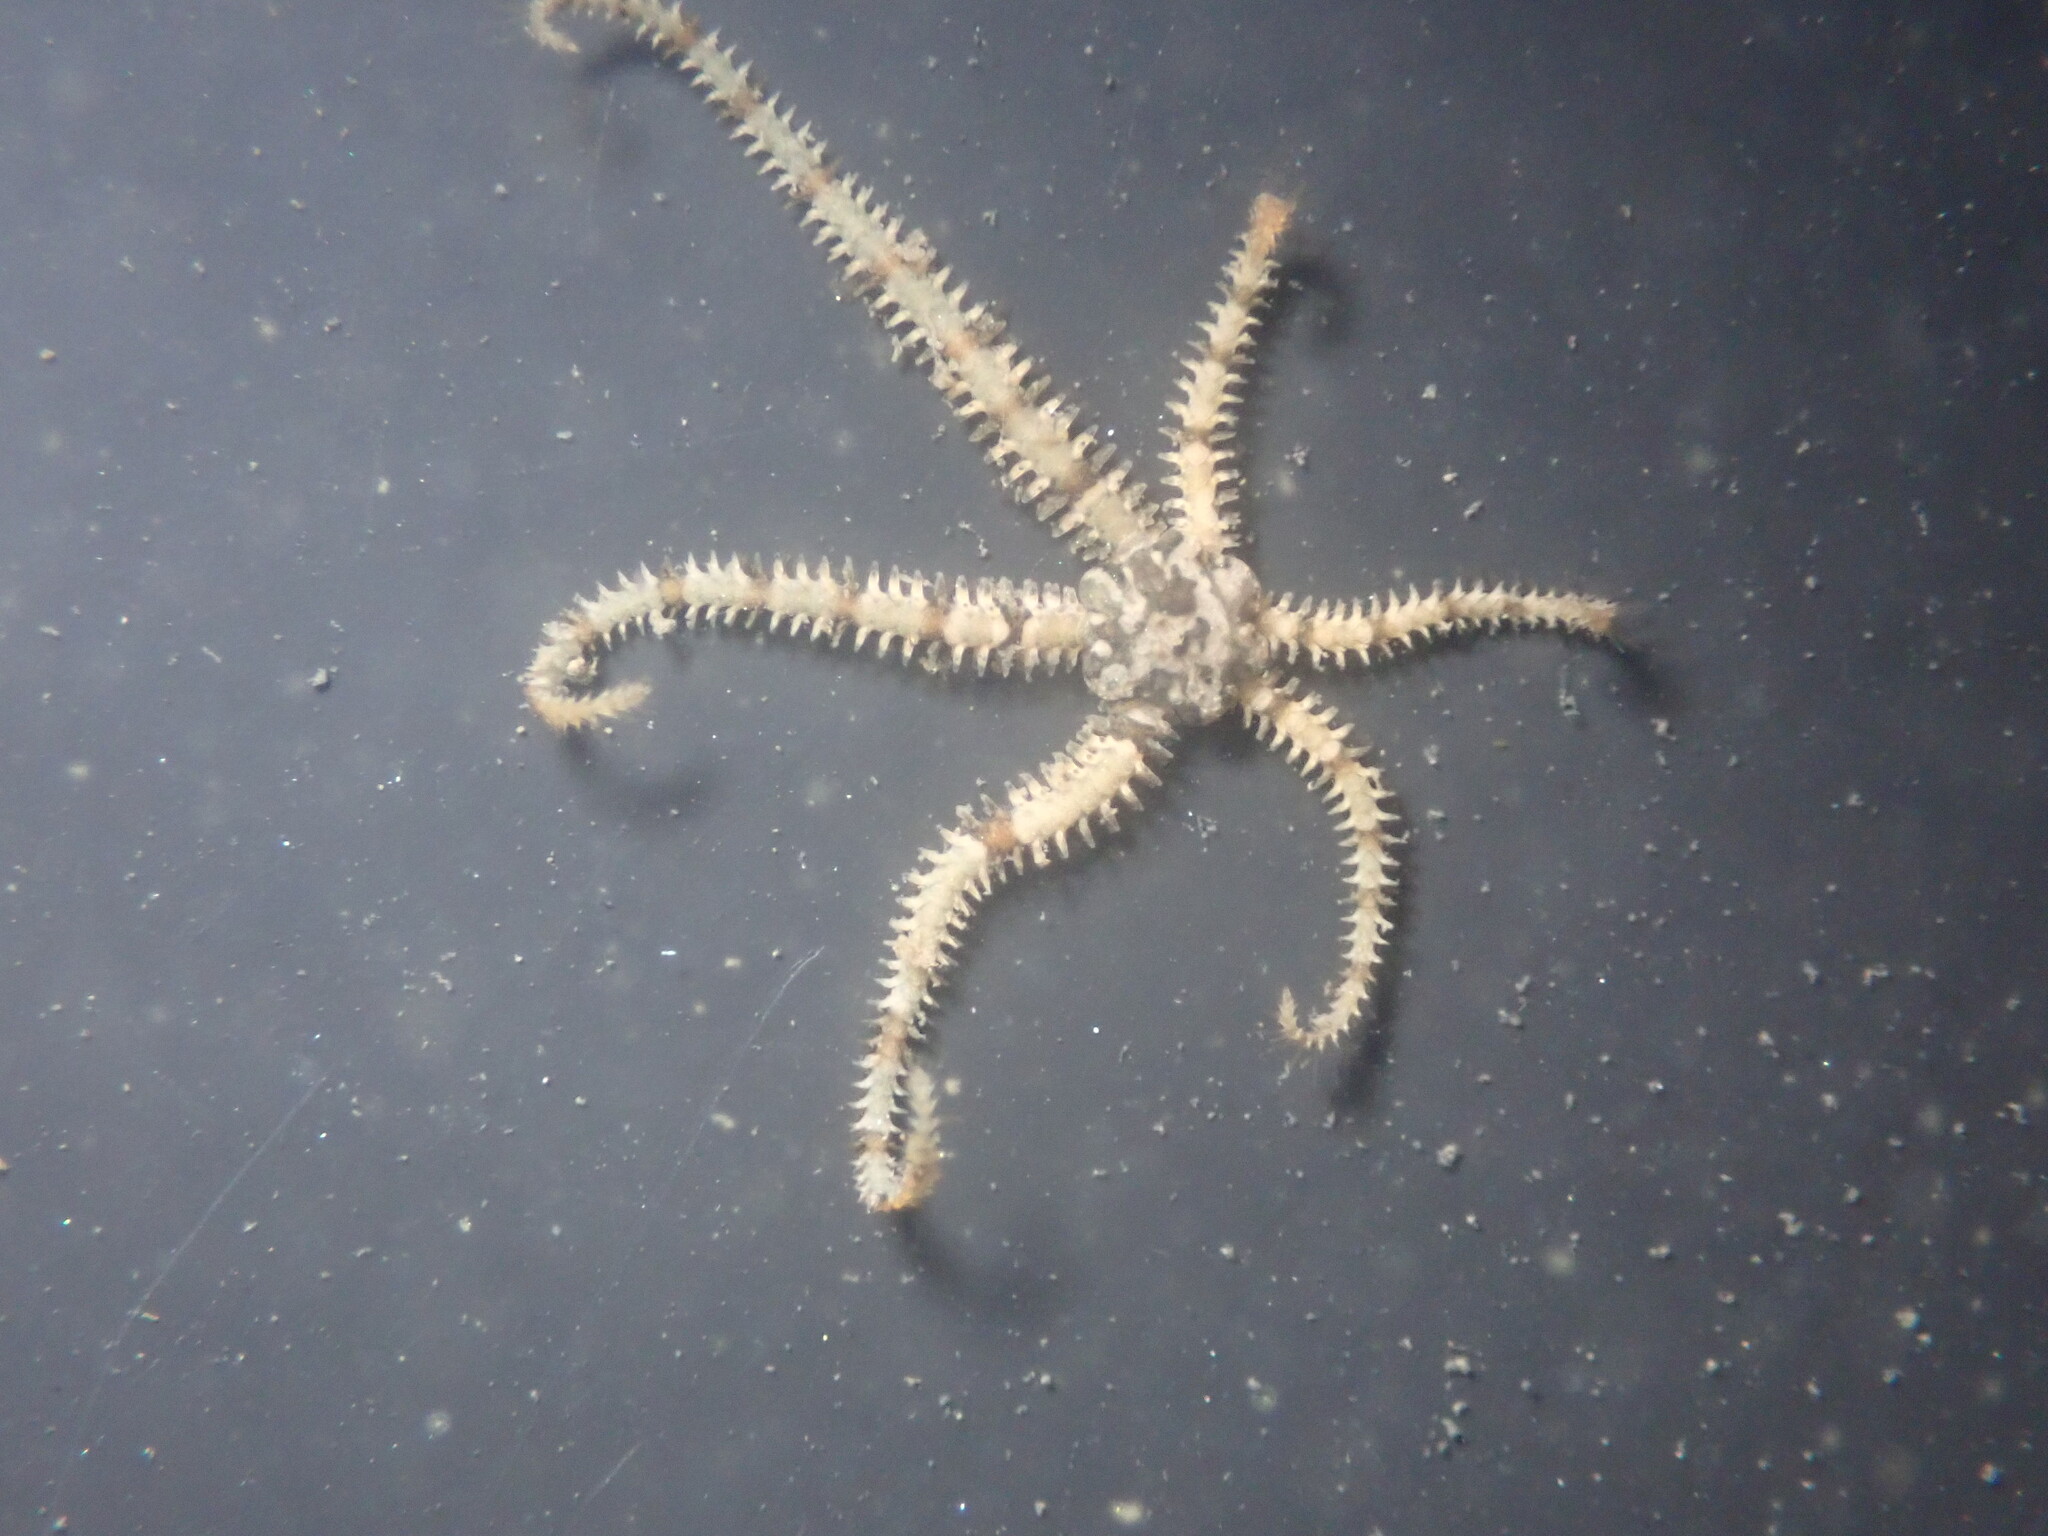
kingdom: Animalia
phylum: Echinodermata
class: Ophiuroidea
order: Amphilepidida
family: Ophiactidae
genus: Ophiactis
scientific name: Ophiactis savignyi
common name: Savigny's brittle star
